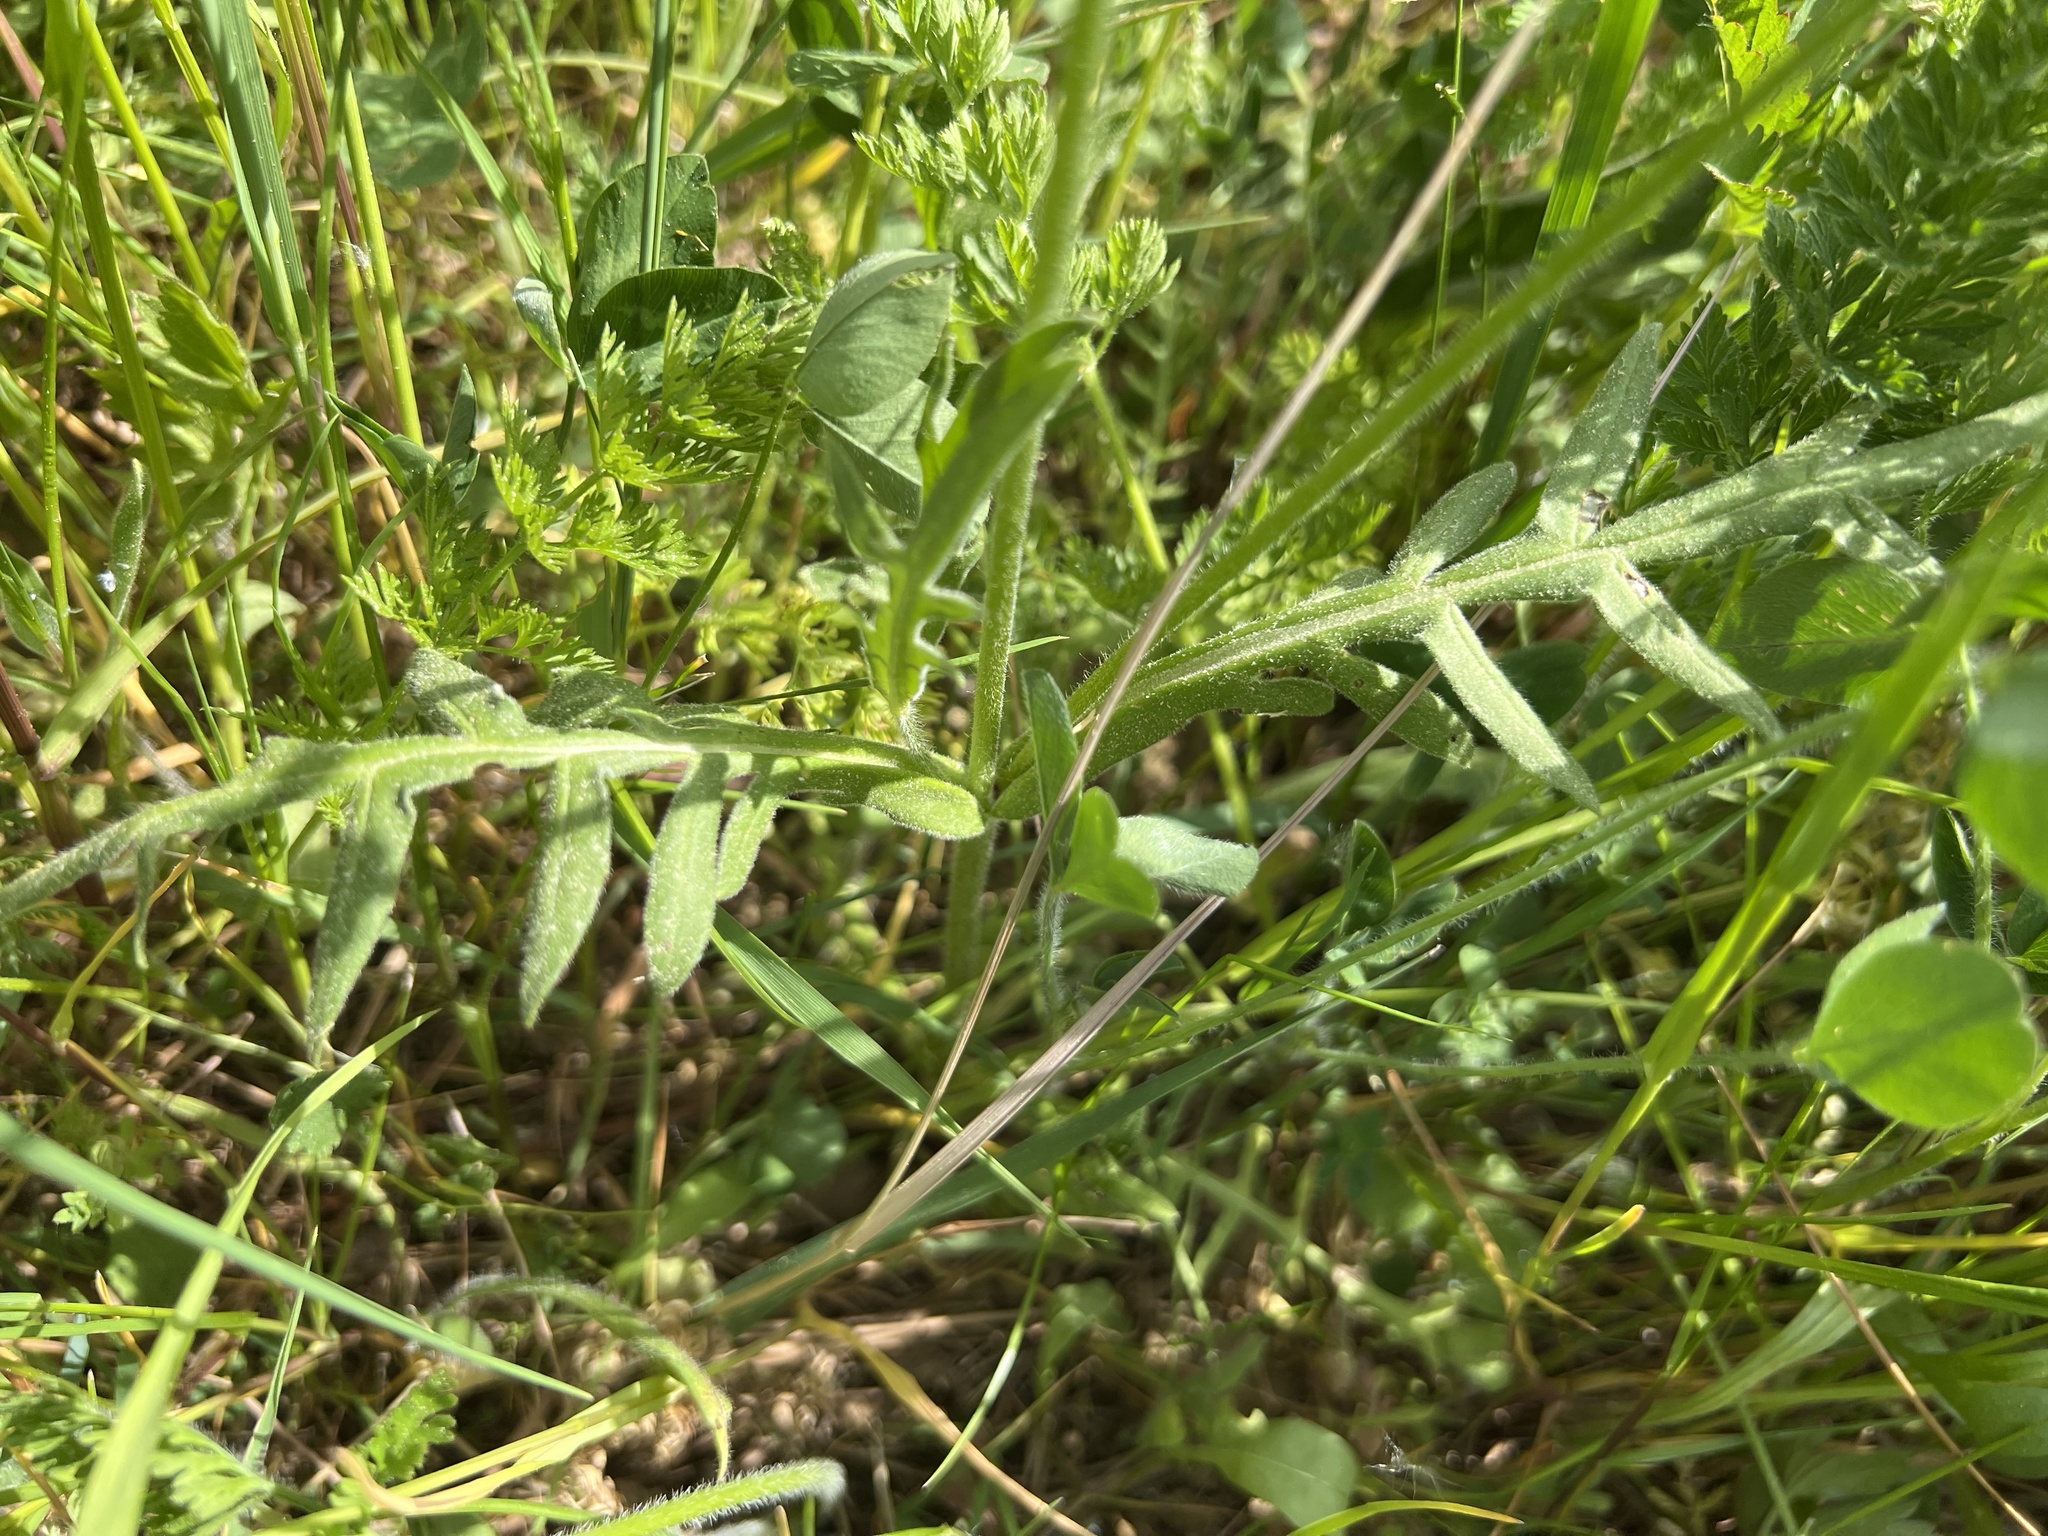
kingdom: Plantae
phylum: Tracheophyta
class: Magnoliopsida
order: Dipsacales
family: Caprifoliaceae
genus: Knautia
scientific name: Knautia arvensis
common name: Field scabiosa
